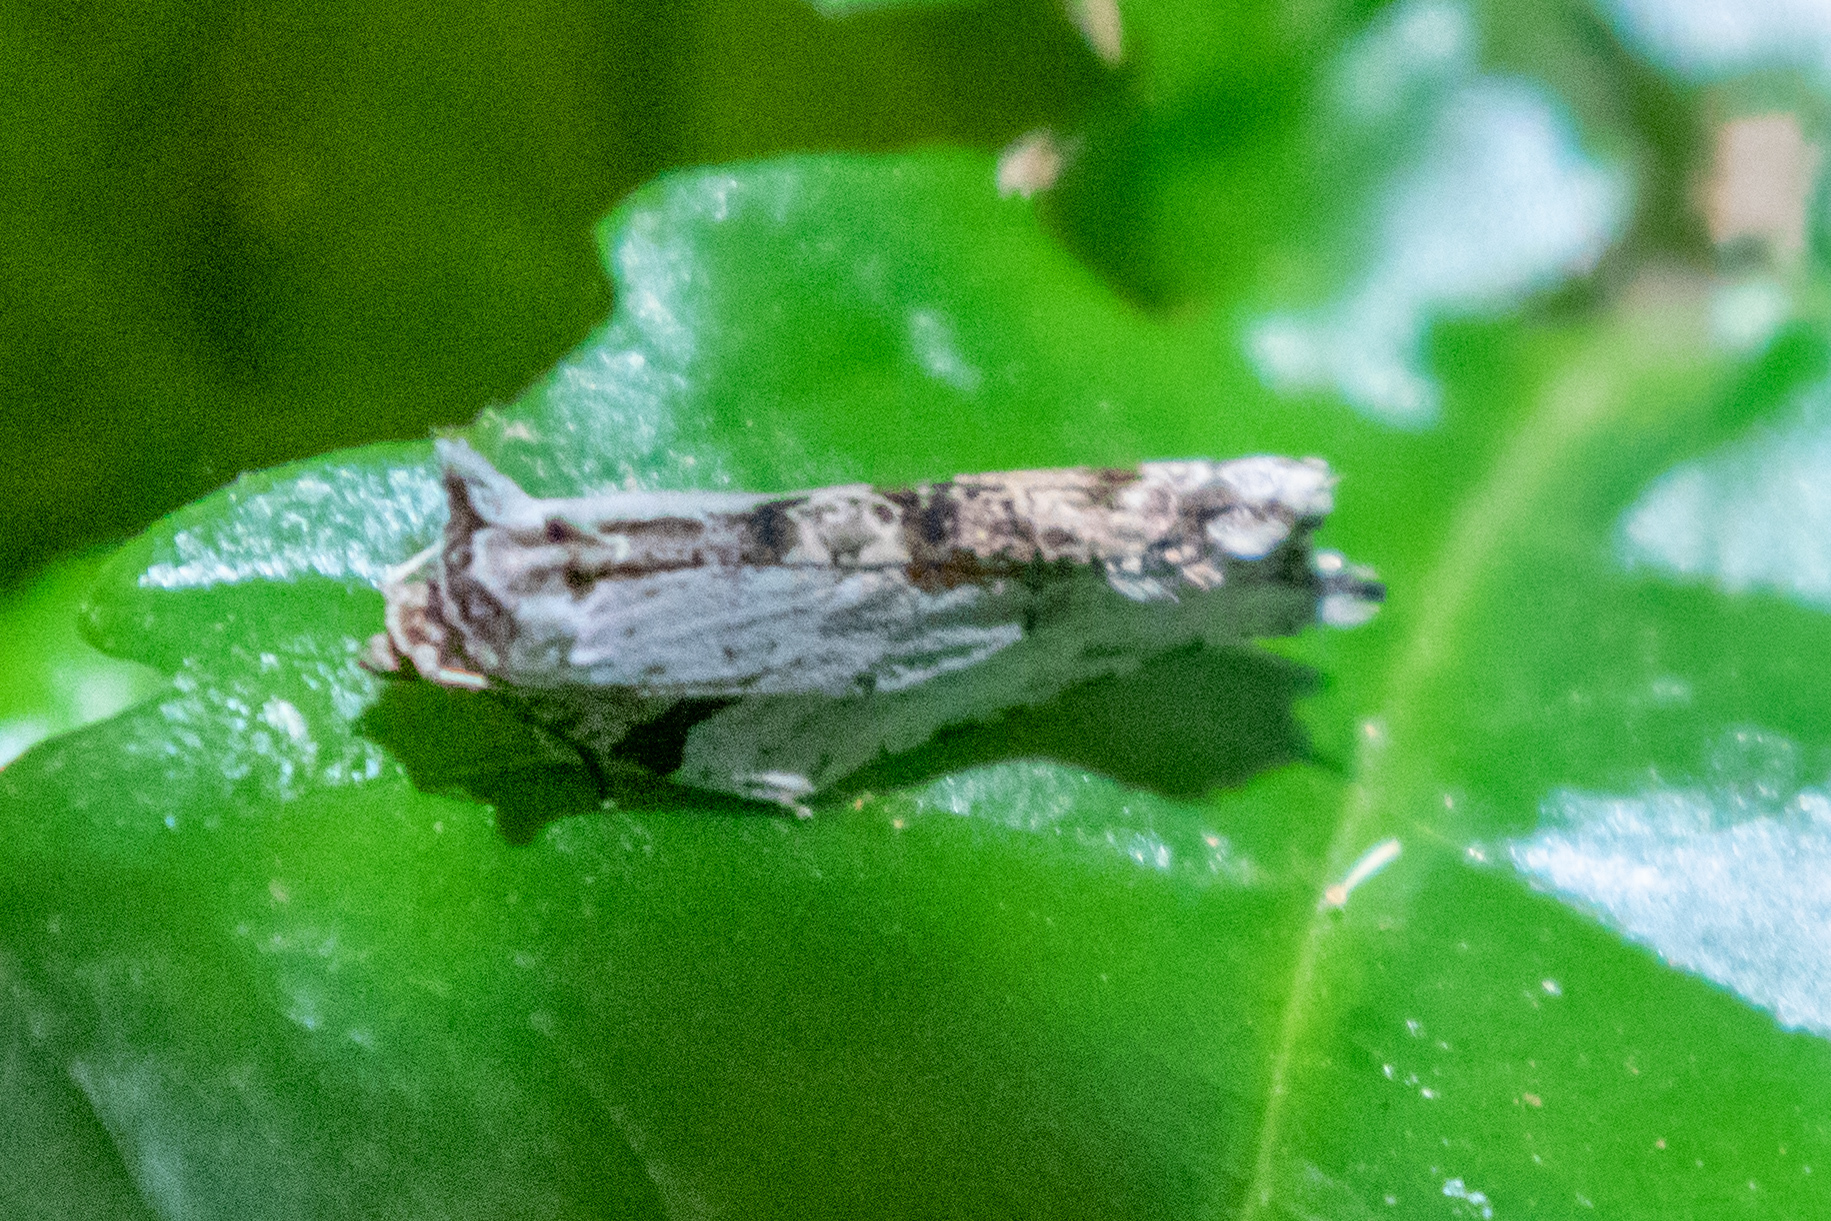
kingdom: Animalia
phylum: Arthropoda
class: Insecta
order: Lepidoptera
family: Tortricidae
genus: Epalxiphora
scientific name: Epalxiphora axenana
